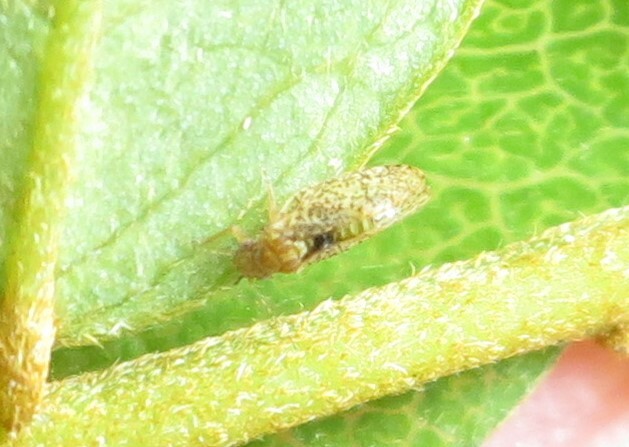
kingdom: Animalia
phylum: Arthropoda
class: Insecta
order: Hemiptera
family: Psyllidae
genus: Psylla
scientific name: Psylla frodobagginsi
